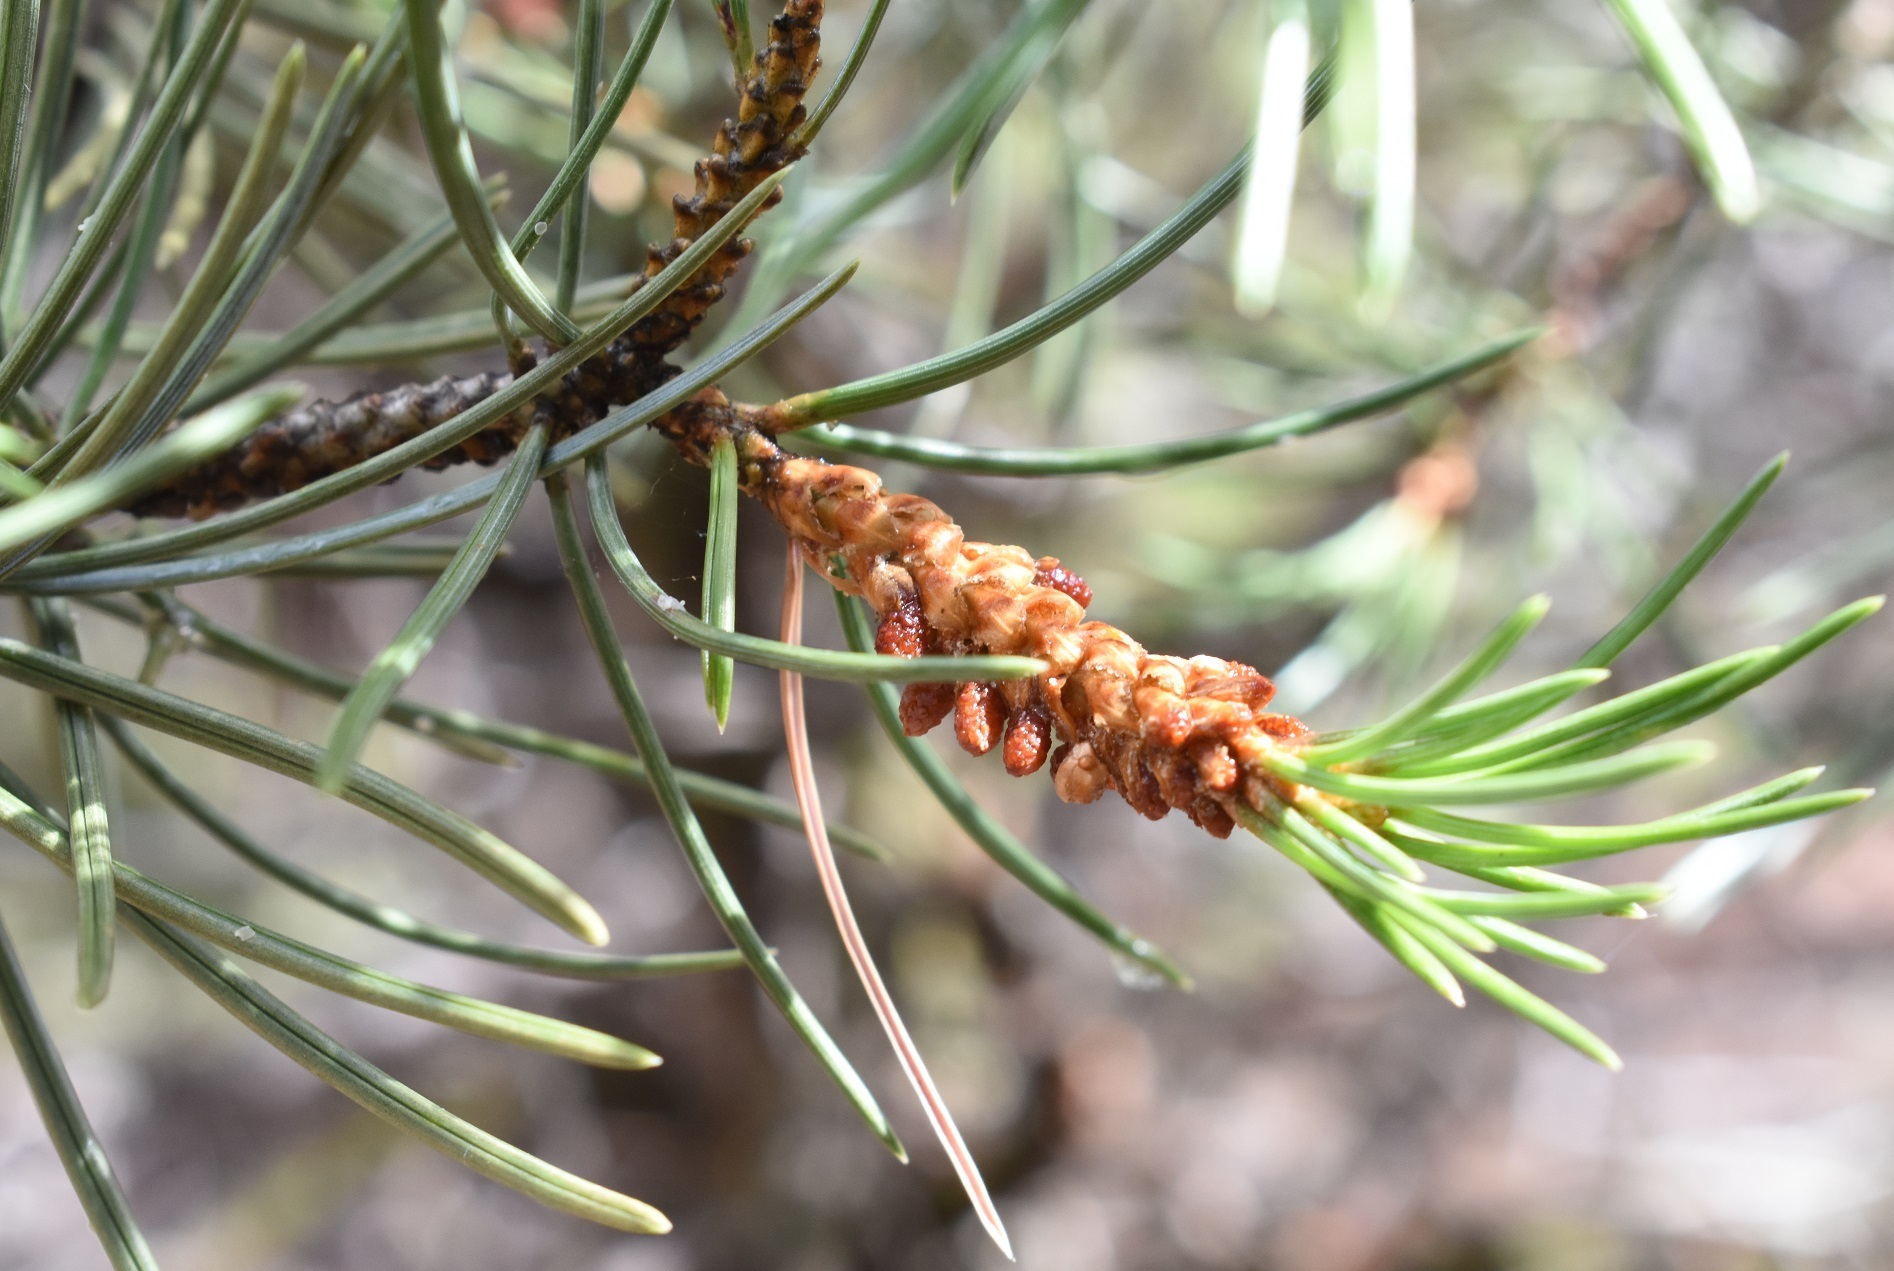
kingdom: Plantae
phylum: Tracheophyta
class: Pinopsida
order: Pinales
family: Pinaceae
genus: Pinus
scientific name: Pinus monophylla
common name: One-leaved nut pine
